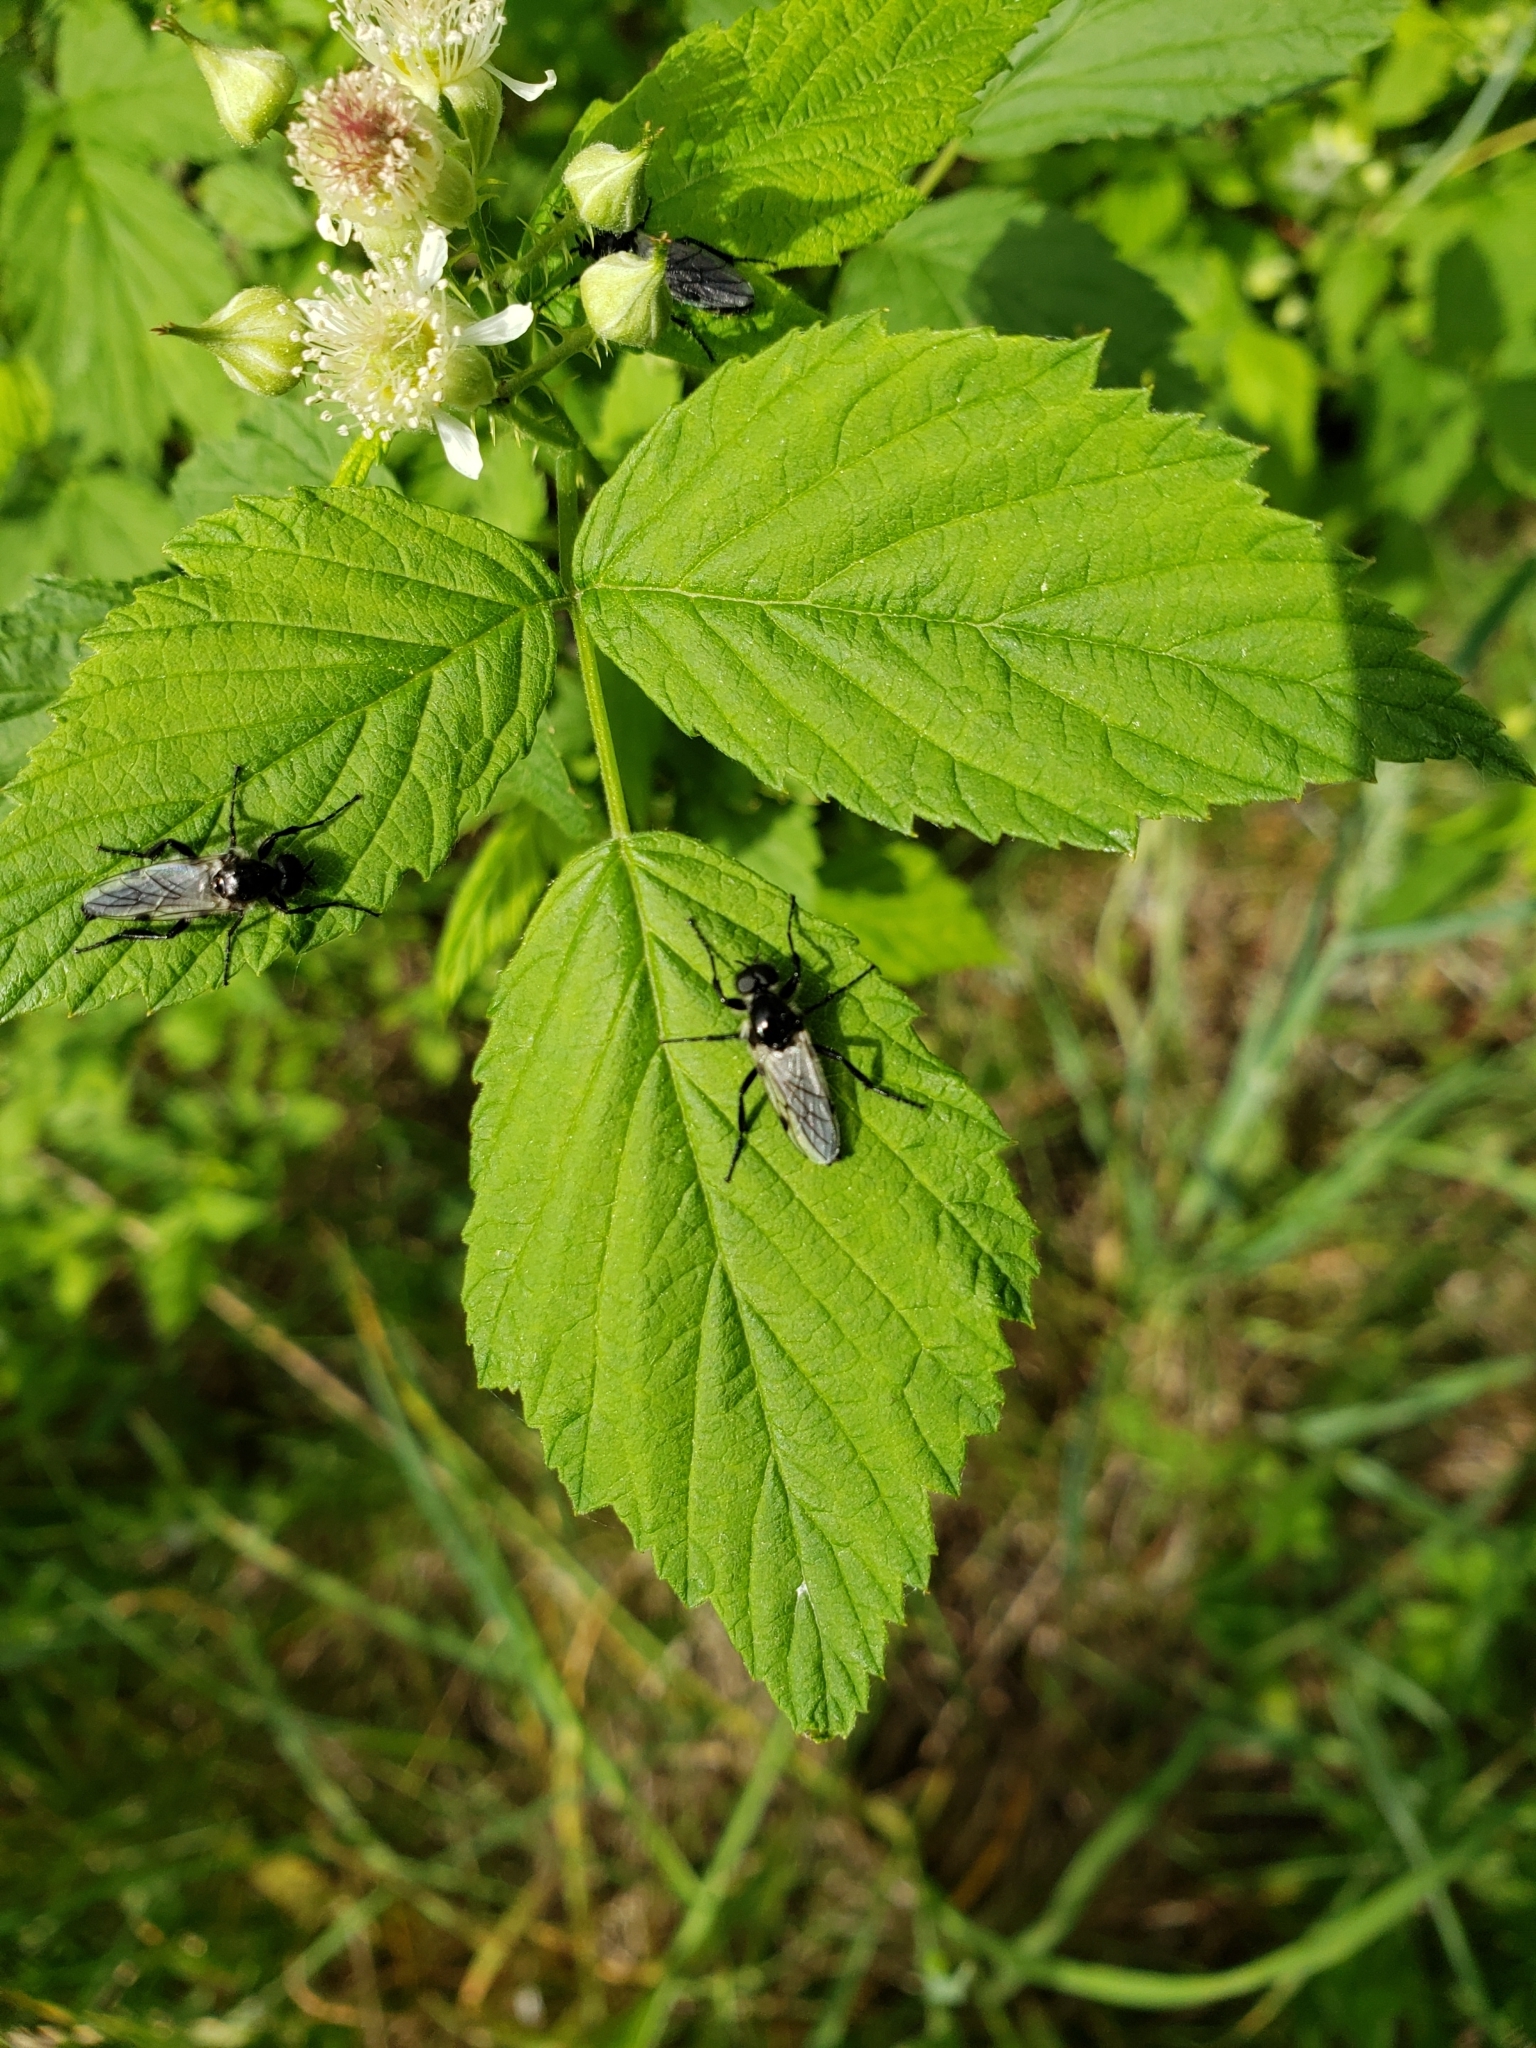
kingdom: Animalia
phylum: Arthropoda
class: Insecta
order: Diptera
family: Bibionidae
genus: Bibio
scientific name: Bibio albipennis
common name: White-winged march fly
